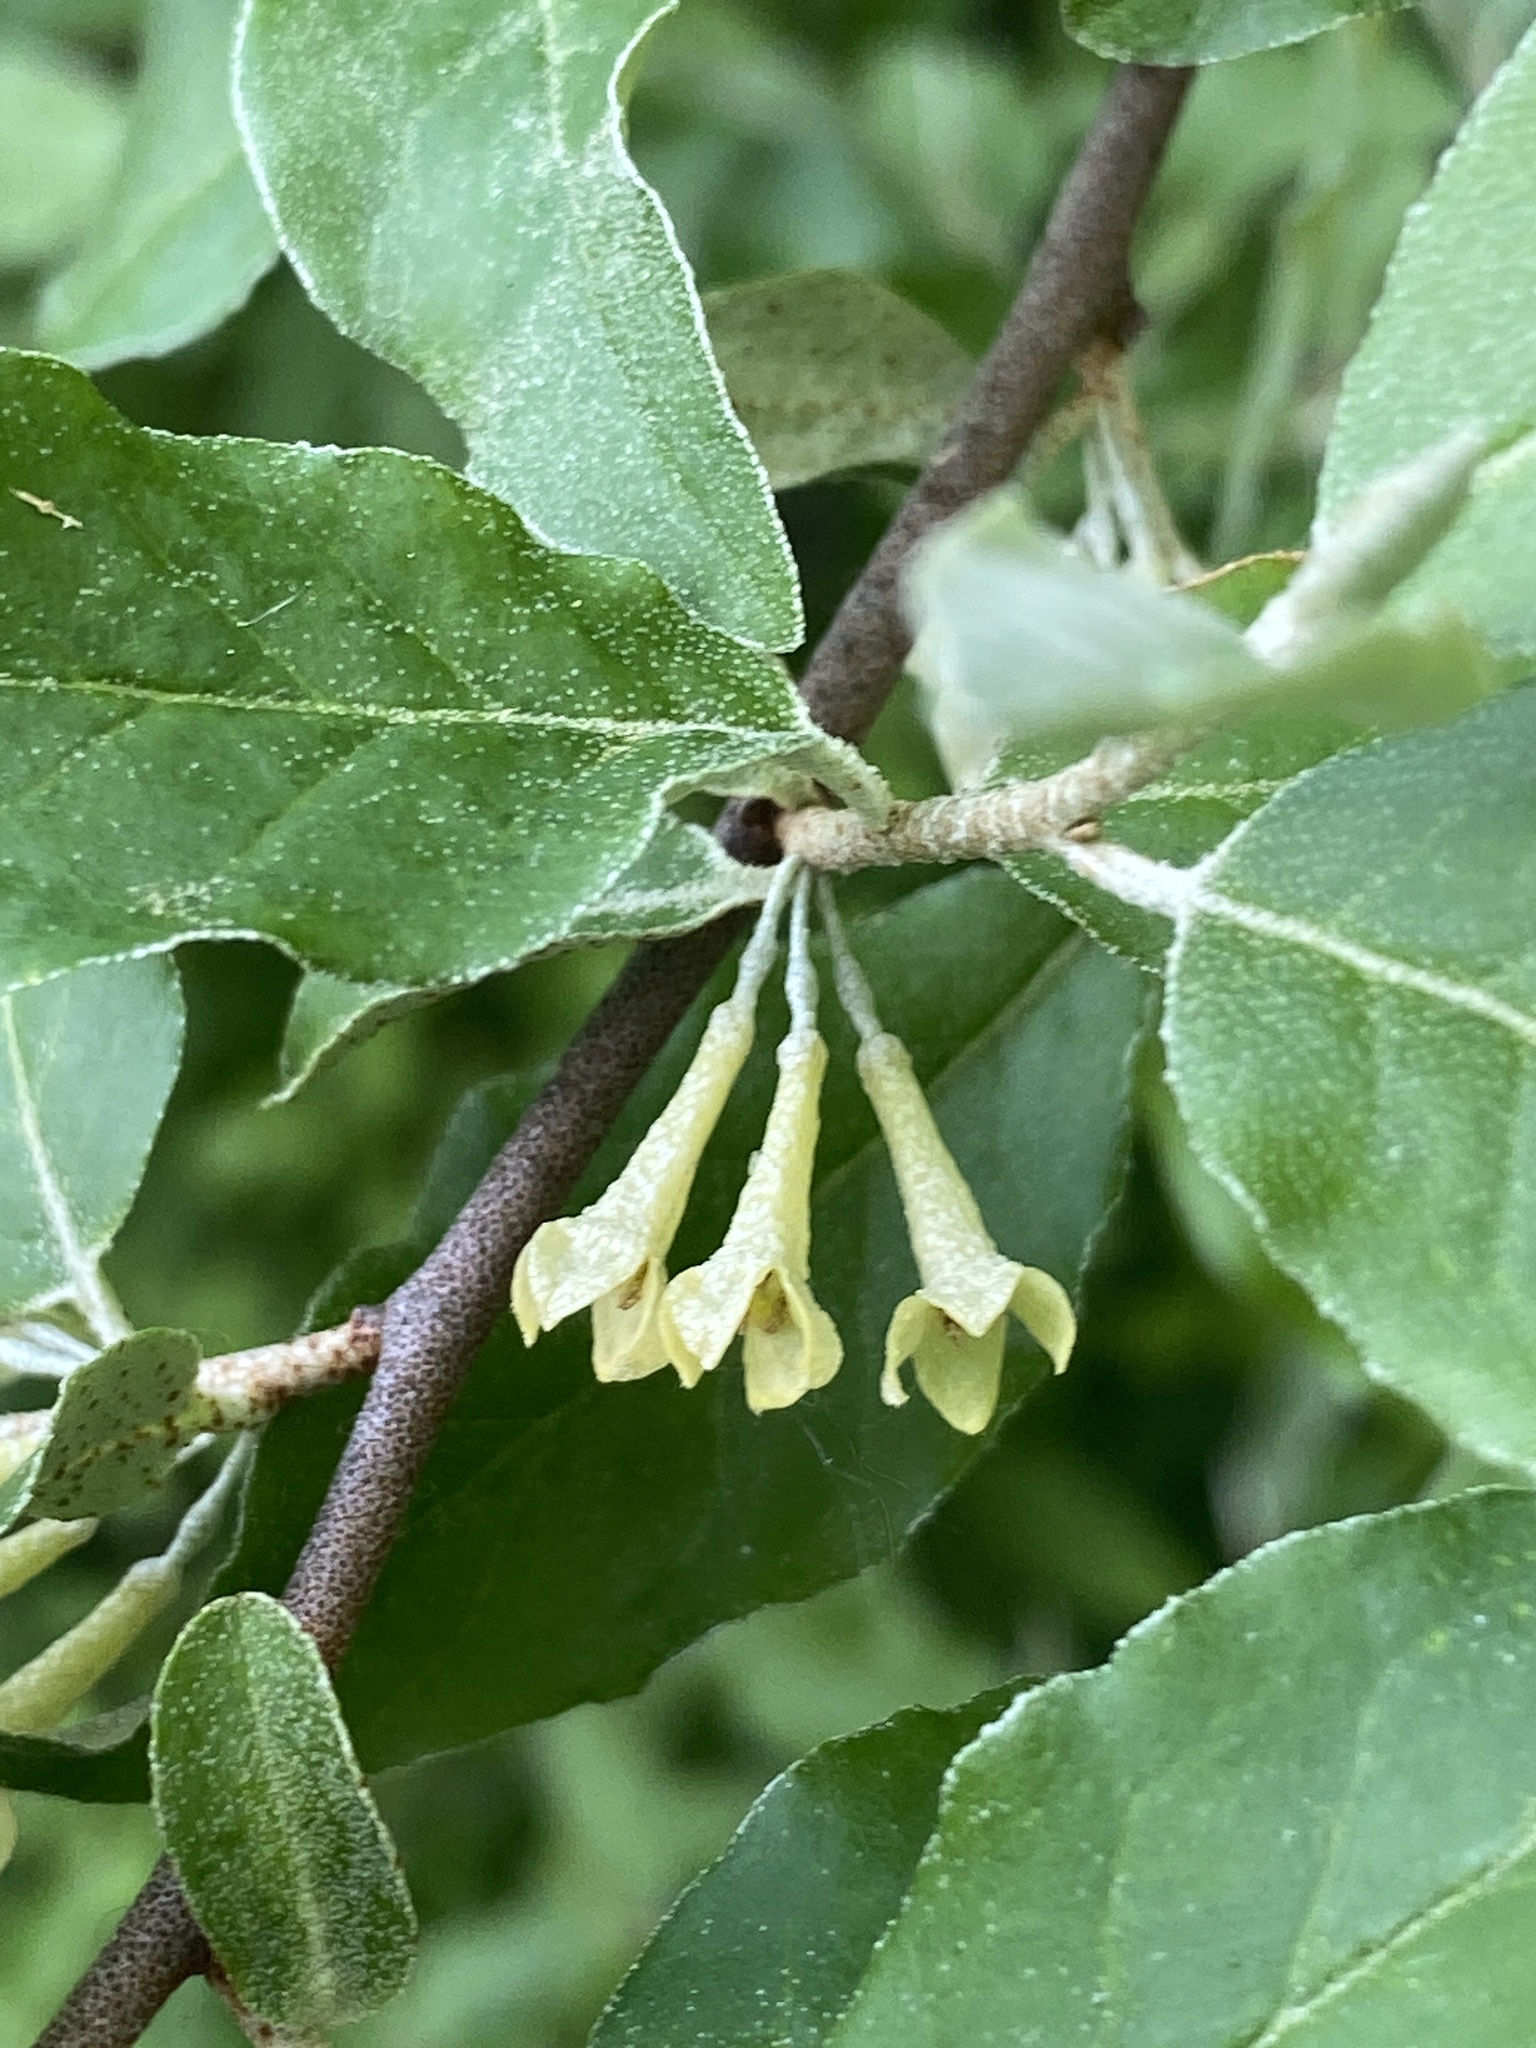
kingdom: Plantae
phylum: Tracheophyta
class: Magnoliopsida
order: Rosales
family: Elaeagnaceae
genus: Elaeagnus
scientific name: Elaeagnus umbellata
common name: Autumn olive
